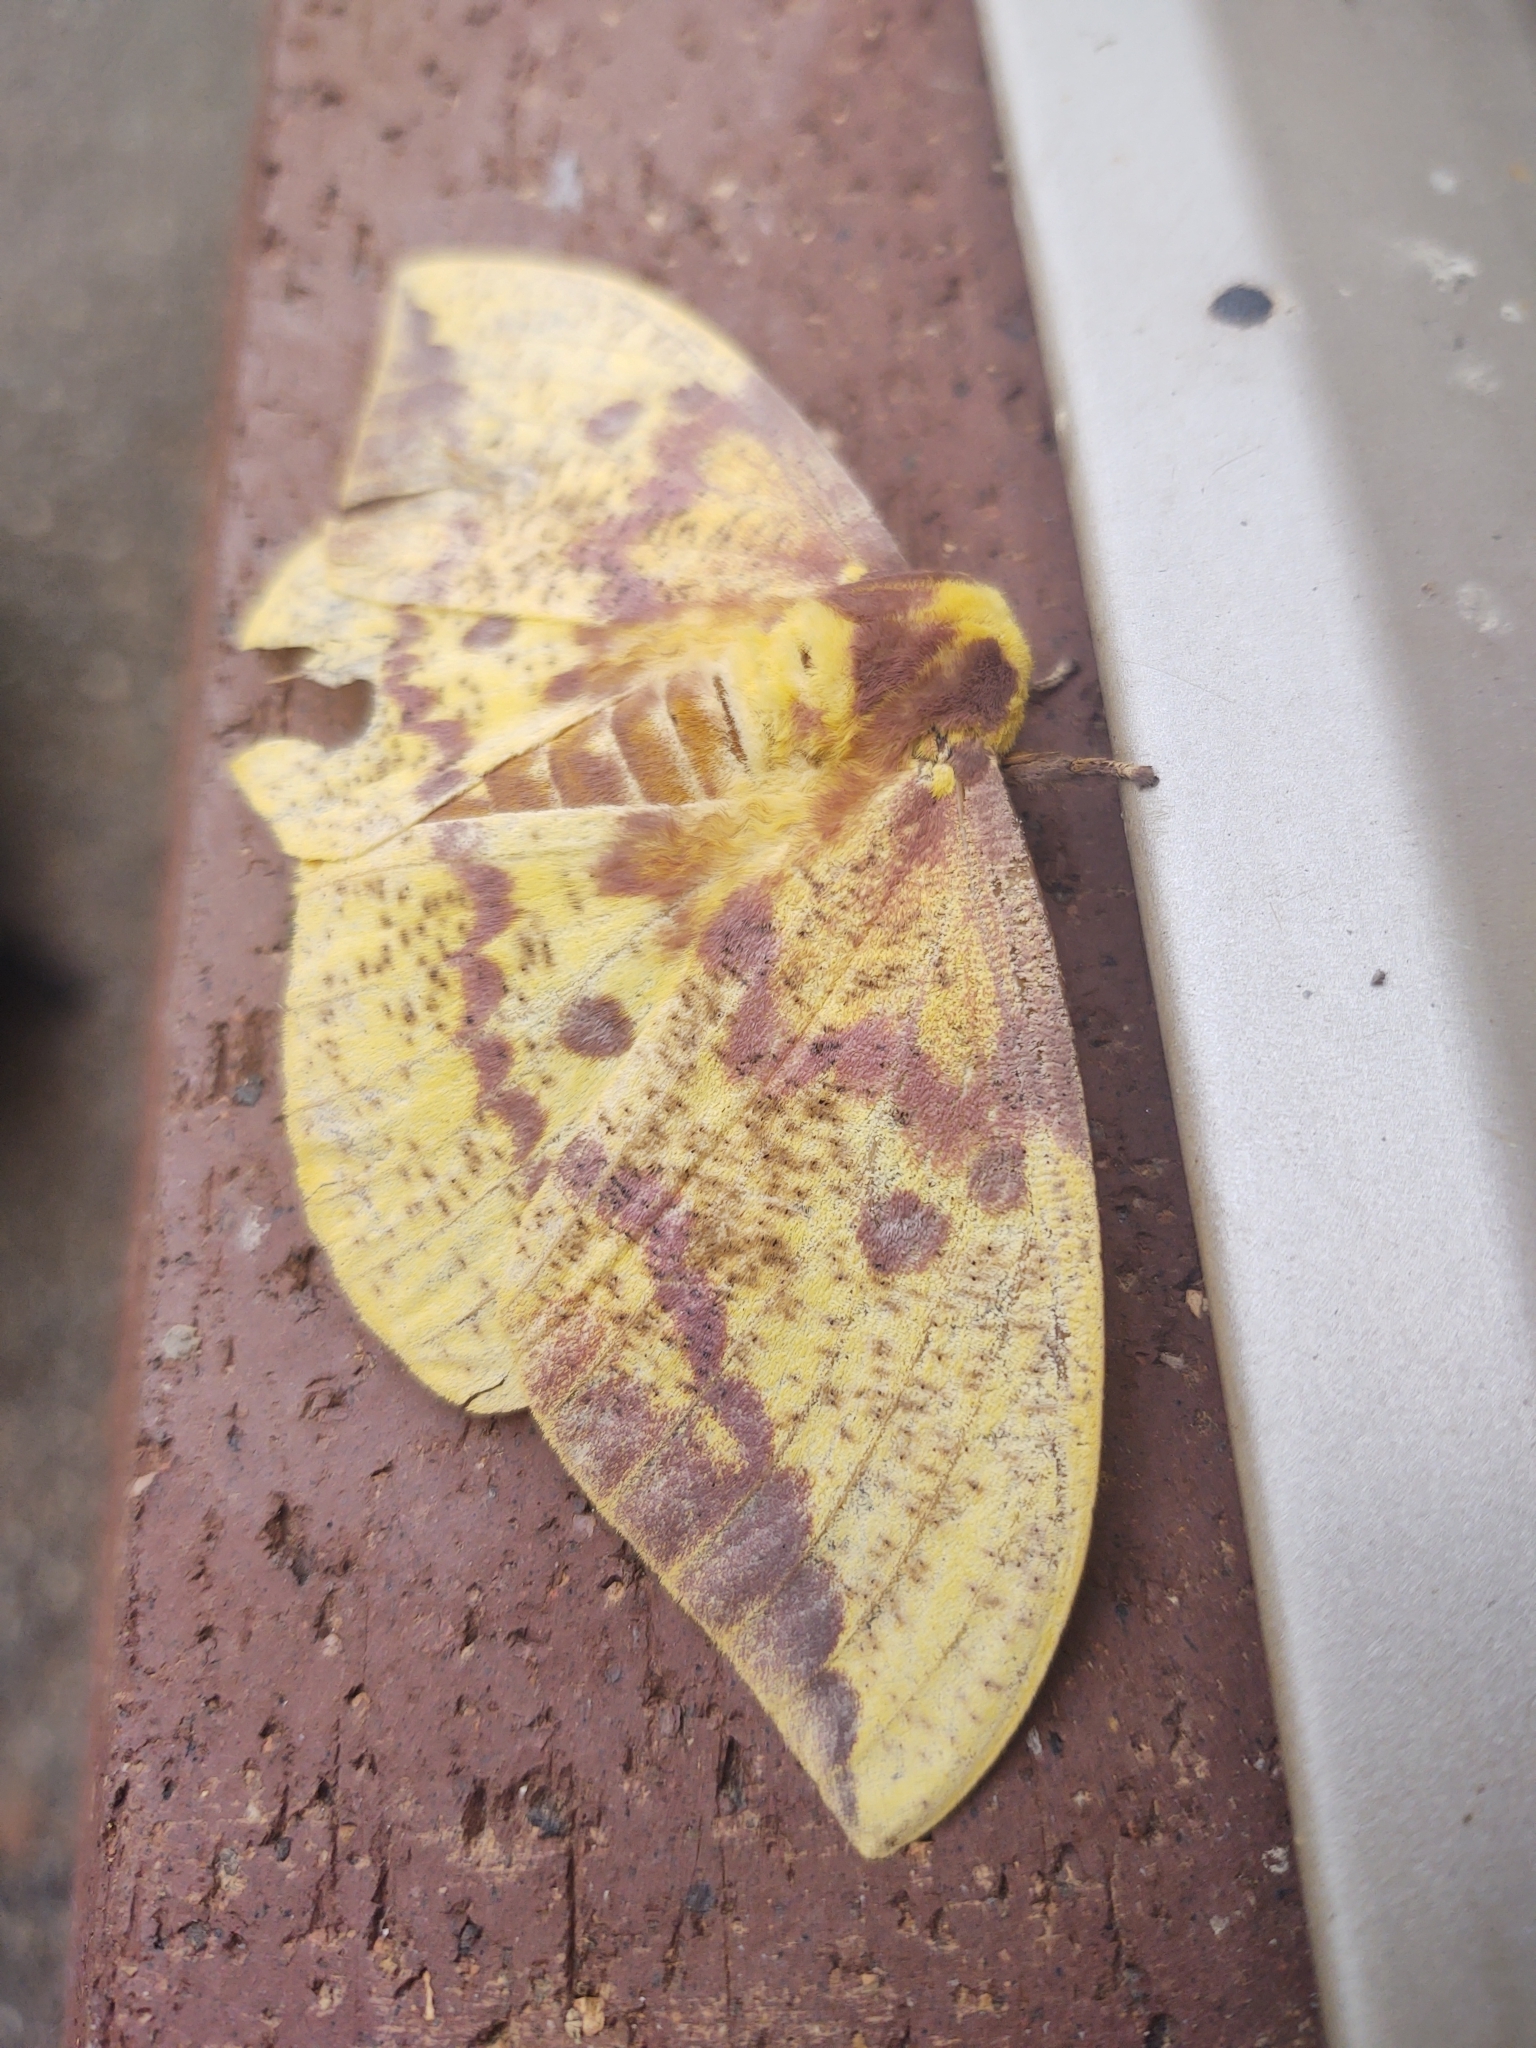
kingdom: Animalia
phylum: Arthropoda
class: Insecta
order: Lepidoptera
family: Saturniidae
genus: Eacles
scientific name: Eacles imperialis
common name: Imperial moth
